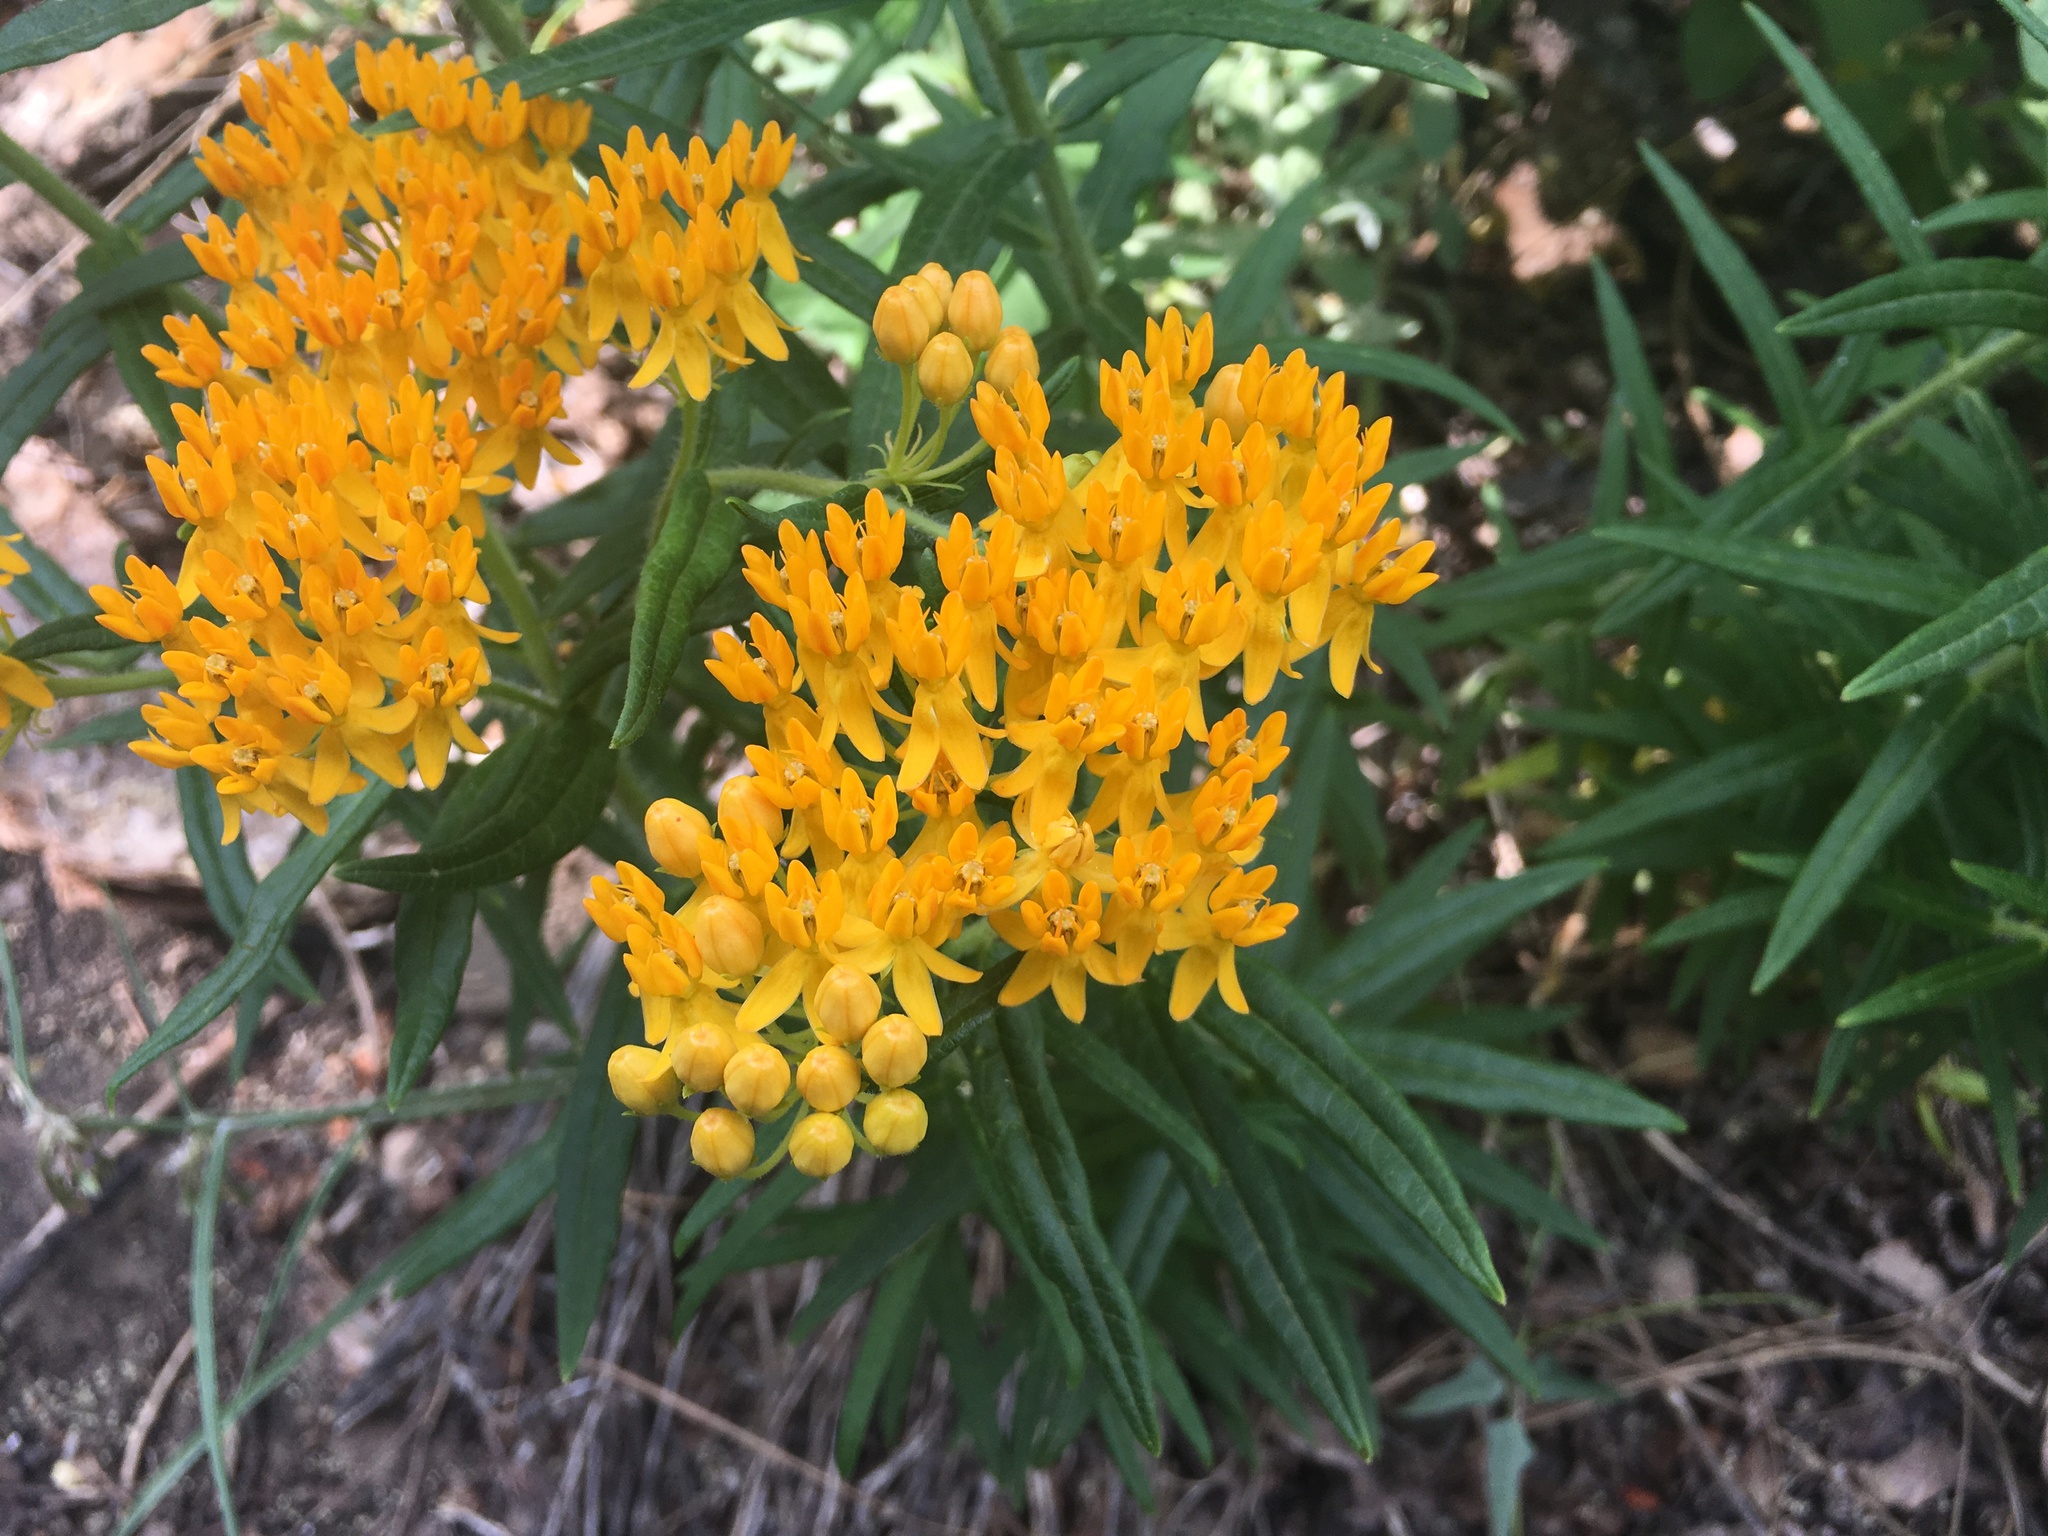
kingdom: Plantae
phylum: Tracheophyta
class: Magnoliopsida
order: Gentianales
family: Apocynaceae
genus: Asclepias
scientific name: Asclepias tuberosa
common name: Butterfly milkweed
